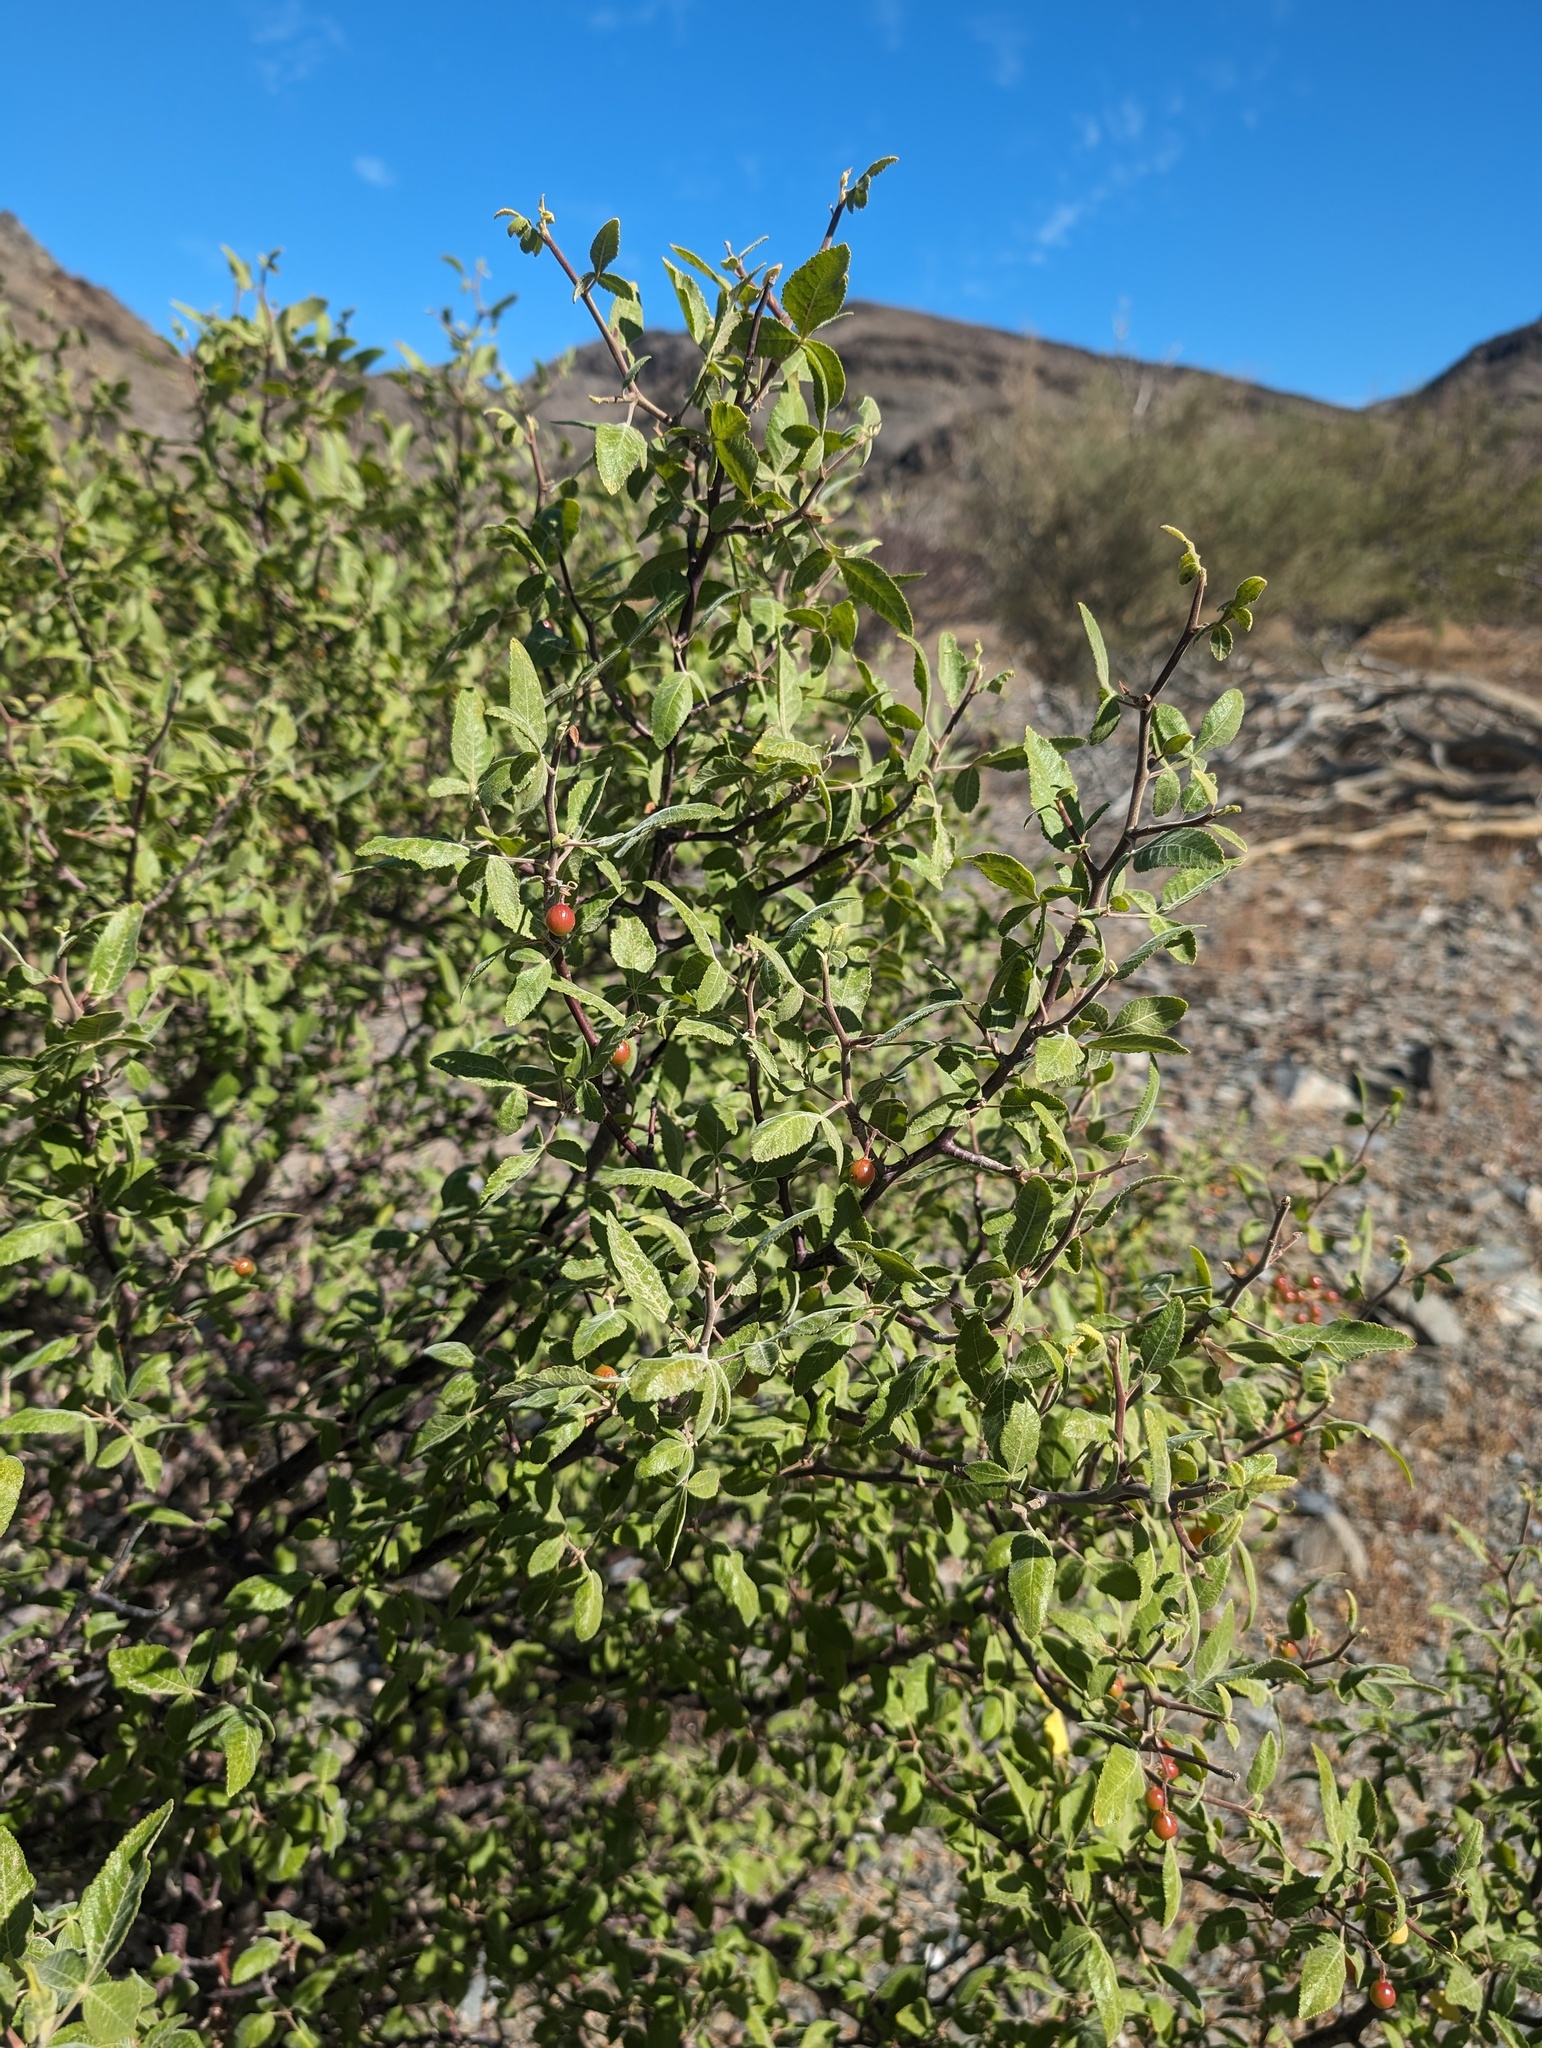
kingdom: Plantae
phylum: Tracheophyta
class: Magnoliopsida
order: Sapindales
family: Burseraceae
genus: Bursera
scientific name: Bursera hindsiana
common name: Red elephant tree
